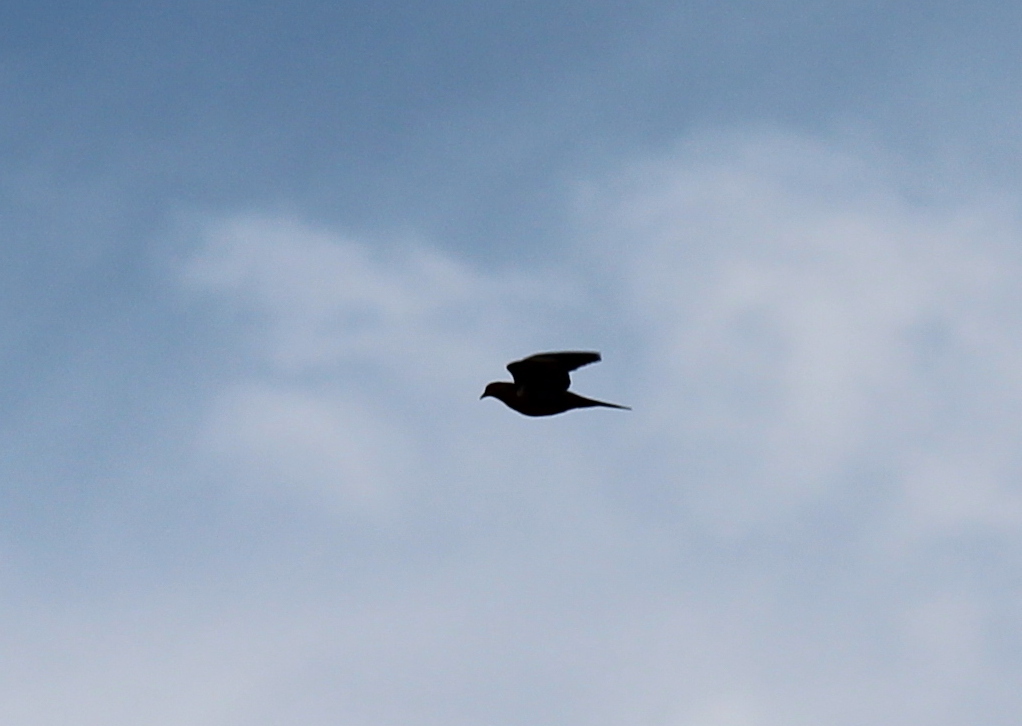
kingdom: Animalia
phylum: Chordata
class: Aves
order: Columbiformes
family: Columbidae
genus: Zenaida
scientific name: Zenaida macroura
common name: Mourning dove
